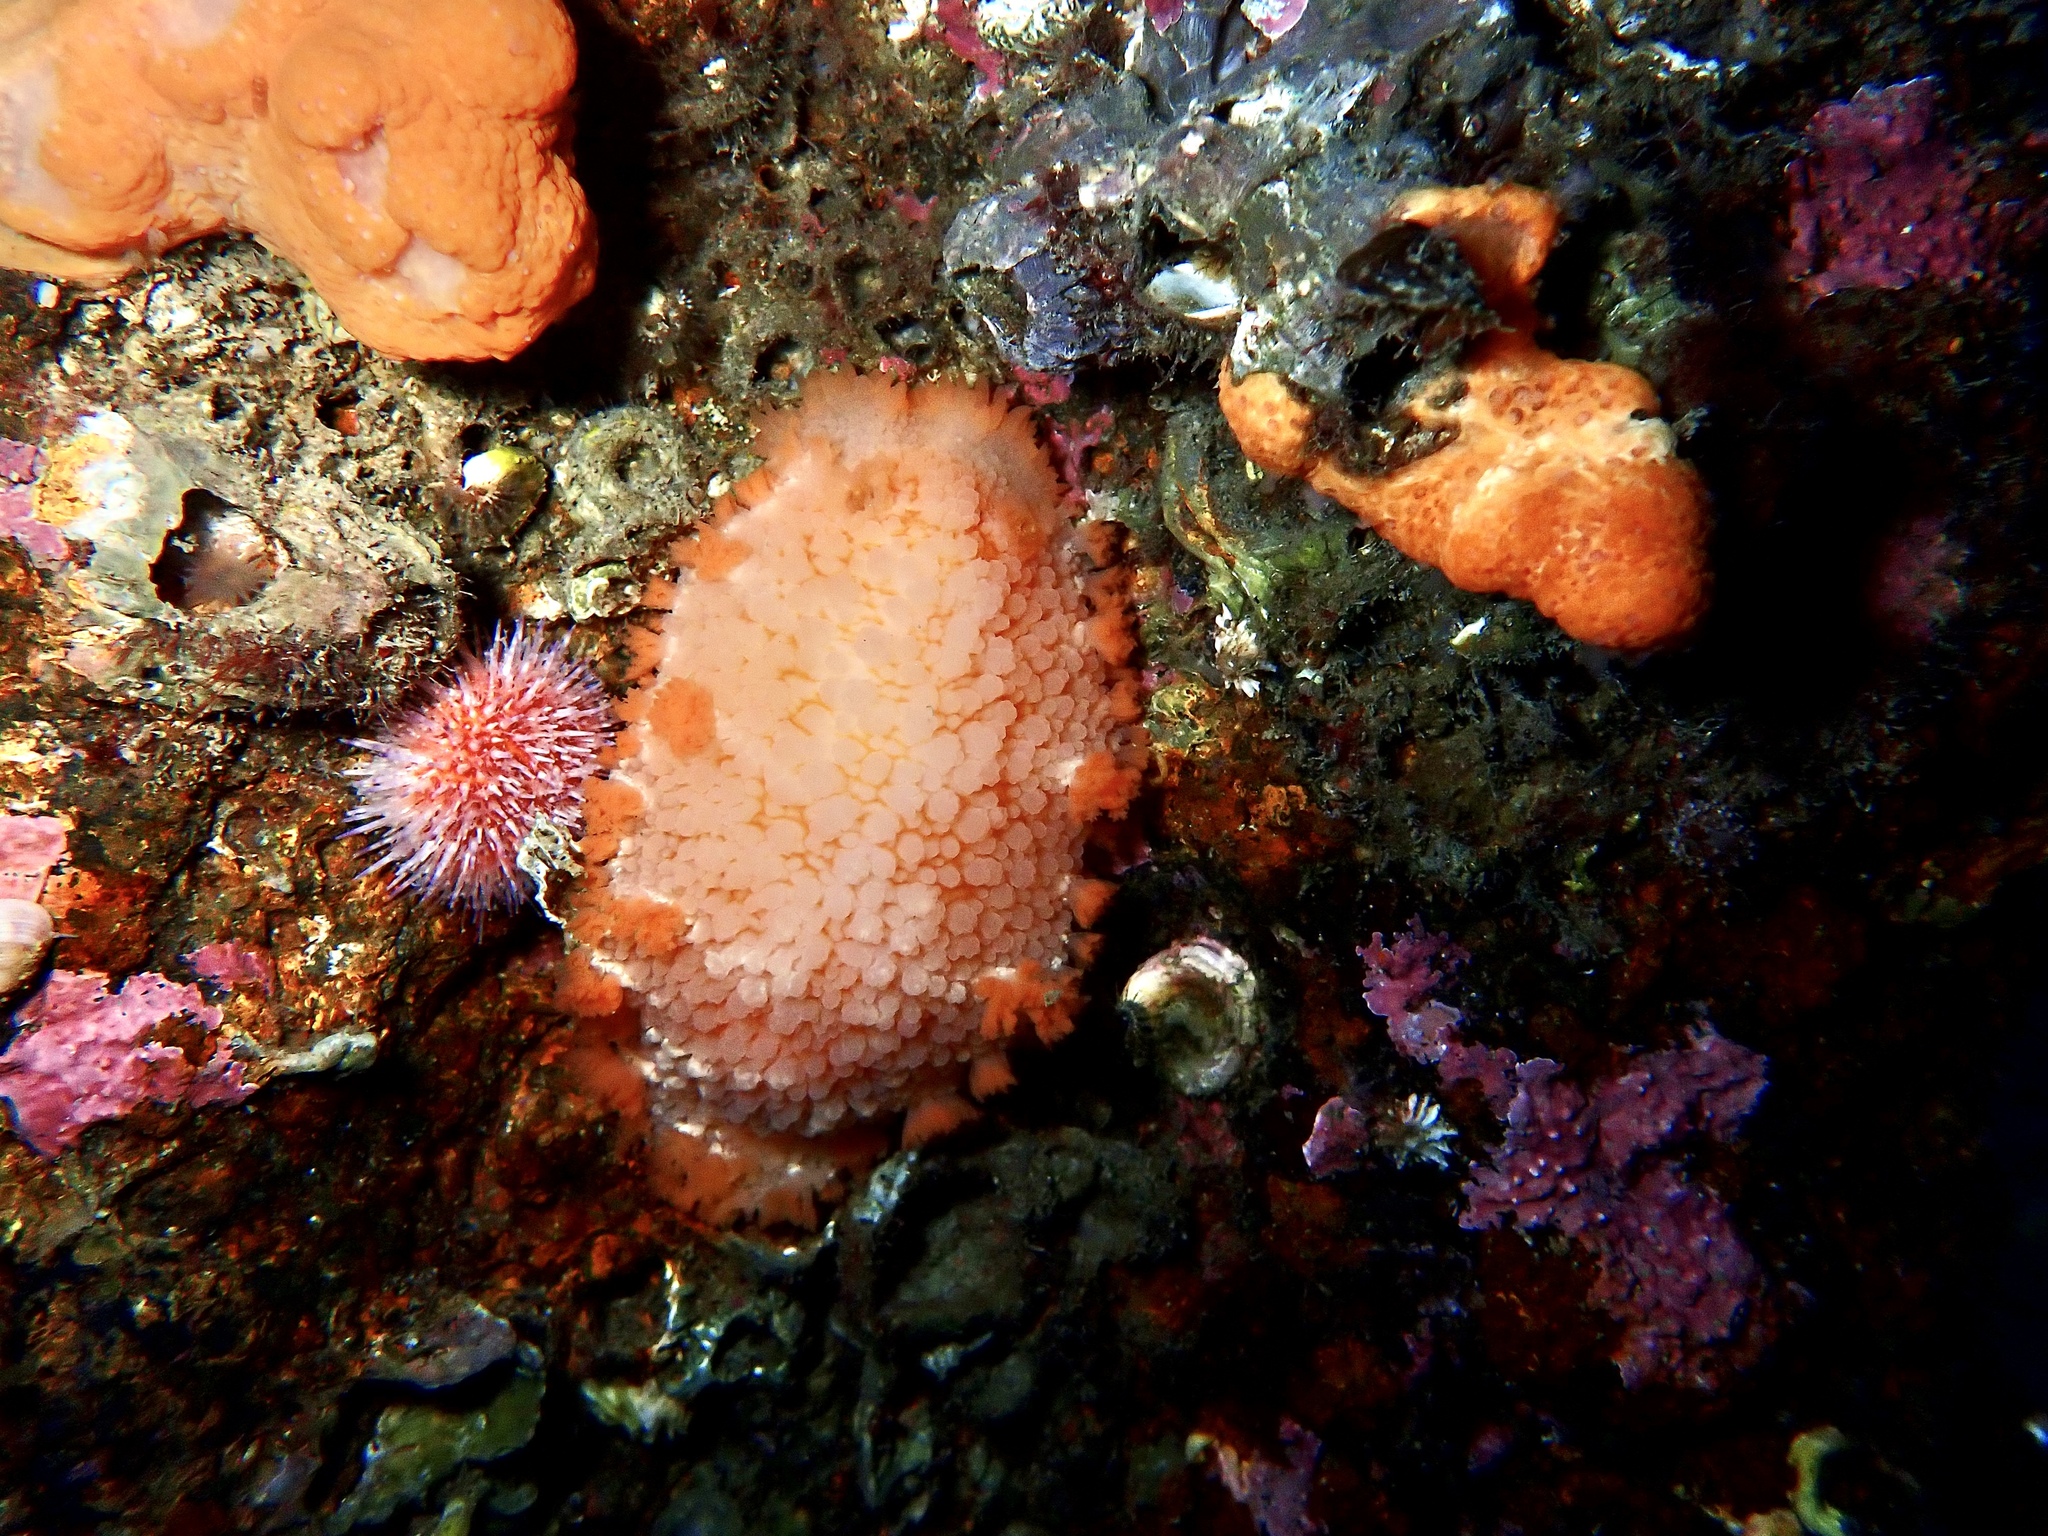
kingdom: Animalia
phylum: Mollusca
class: Gastropoda
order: Nudibranchia
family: Tritoniidae
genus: Tritonia
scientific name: Tritonia hombergii
